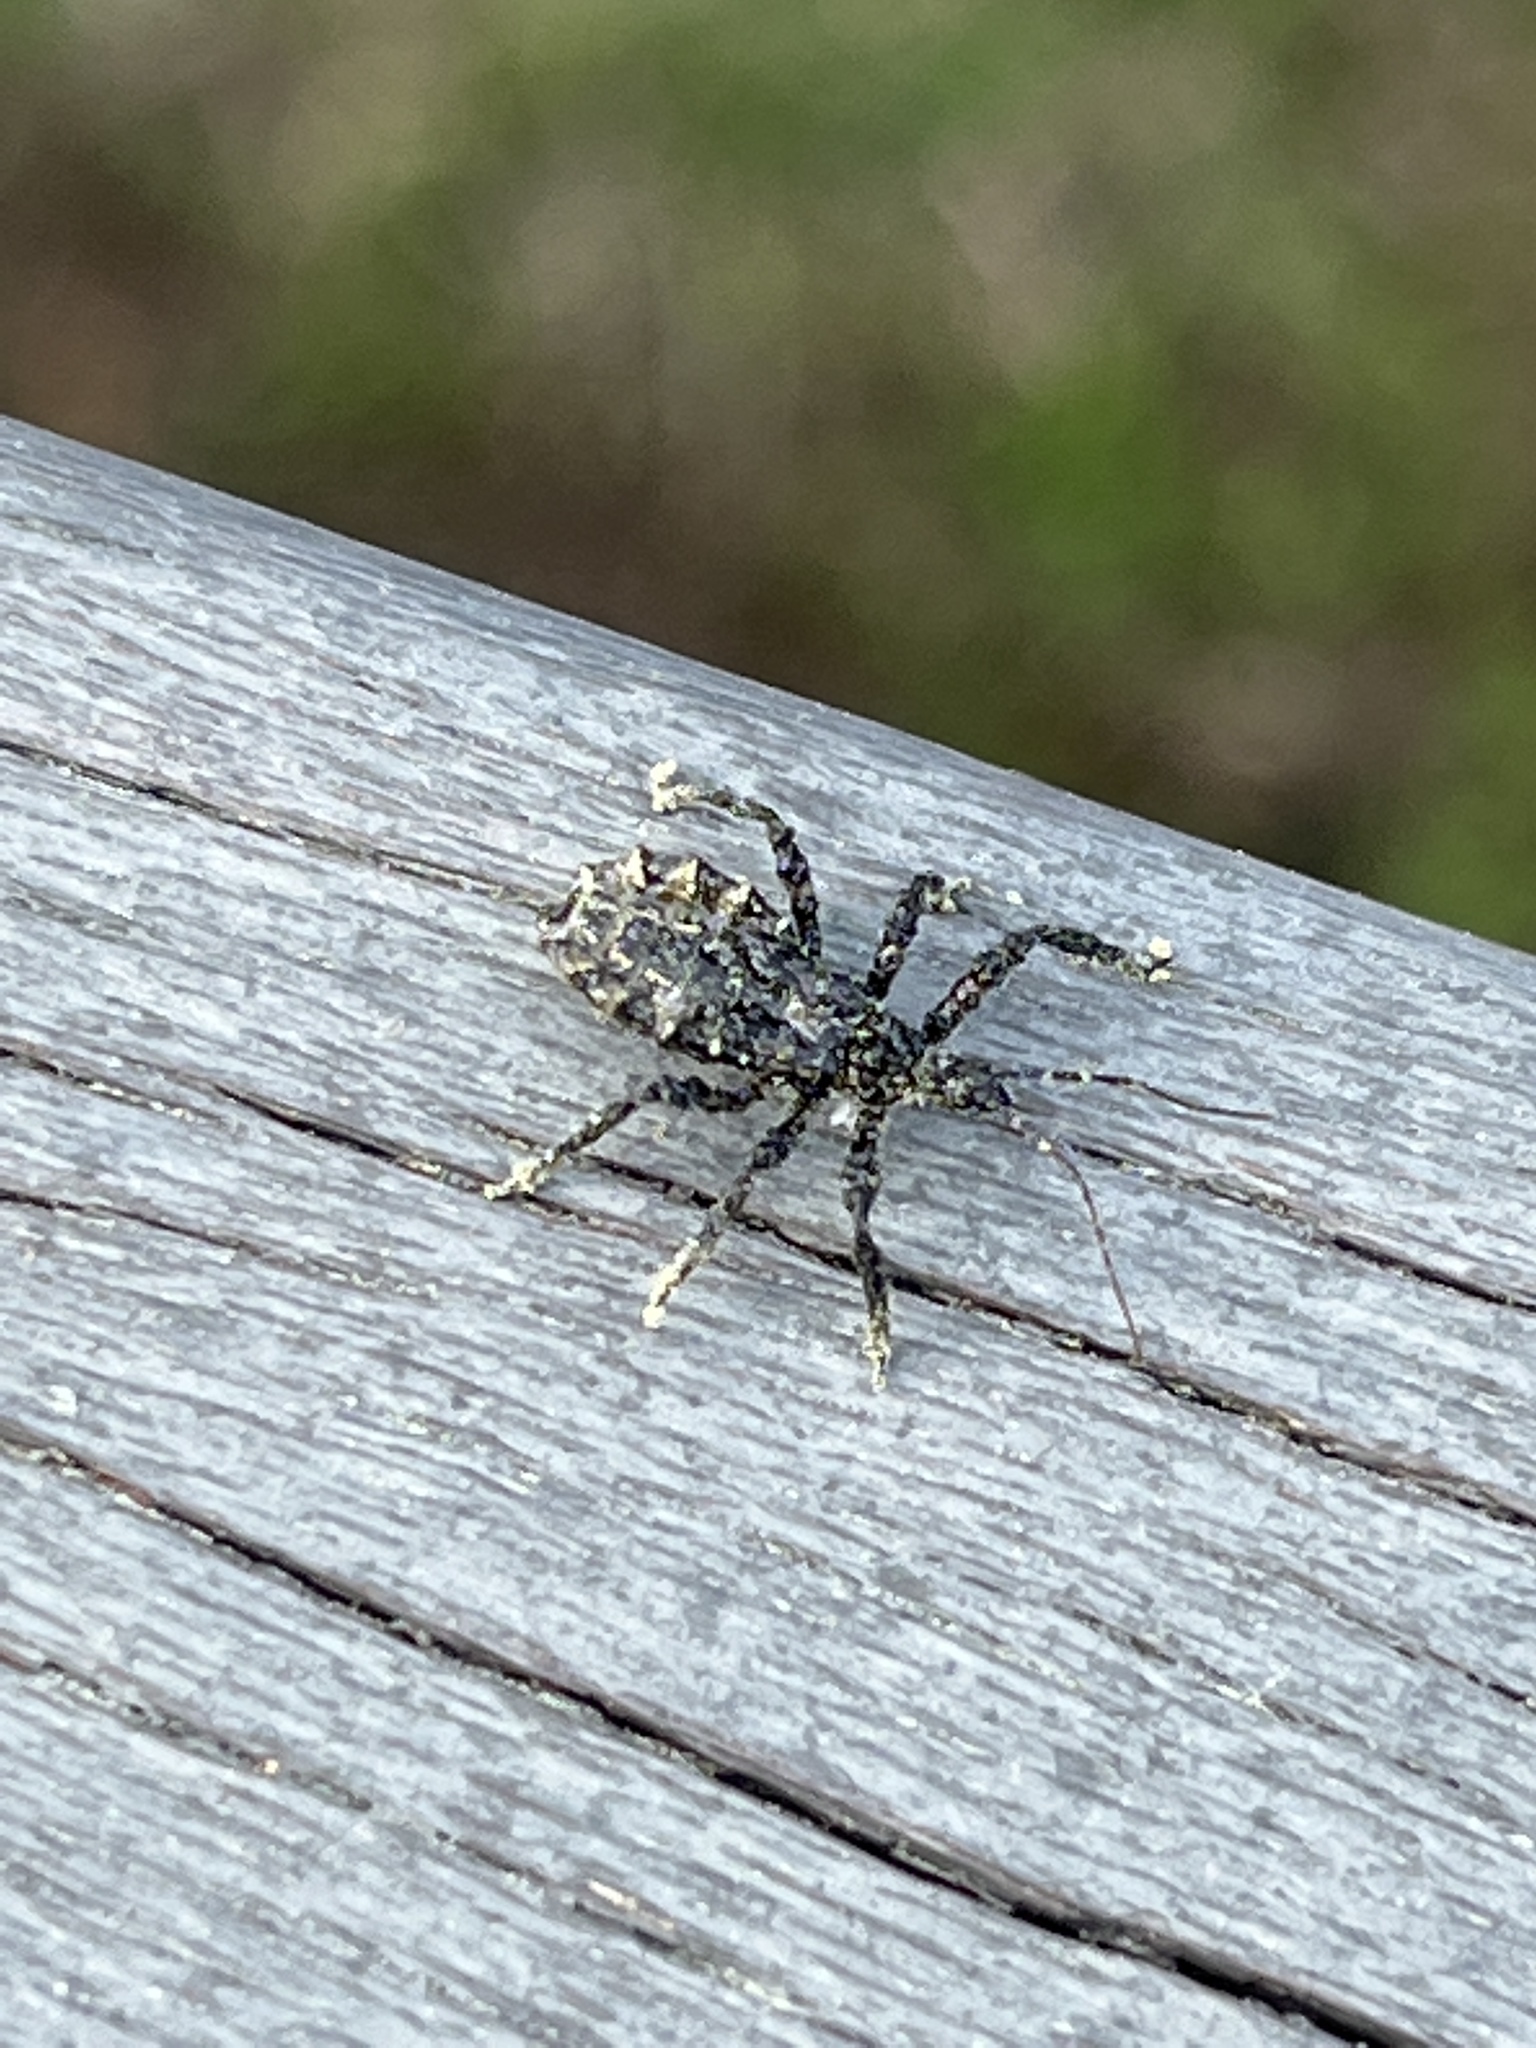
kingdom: Animalia
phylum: Arthropoda
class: Insecta
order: Hemiptera
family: Reduviidae
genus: Velinus
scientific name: Velinus nodipes
